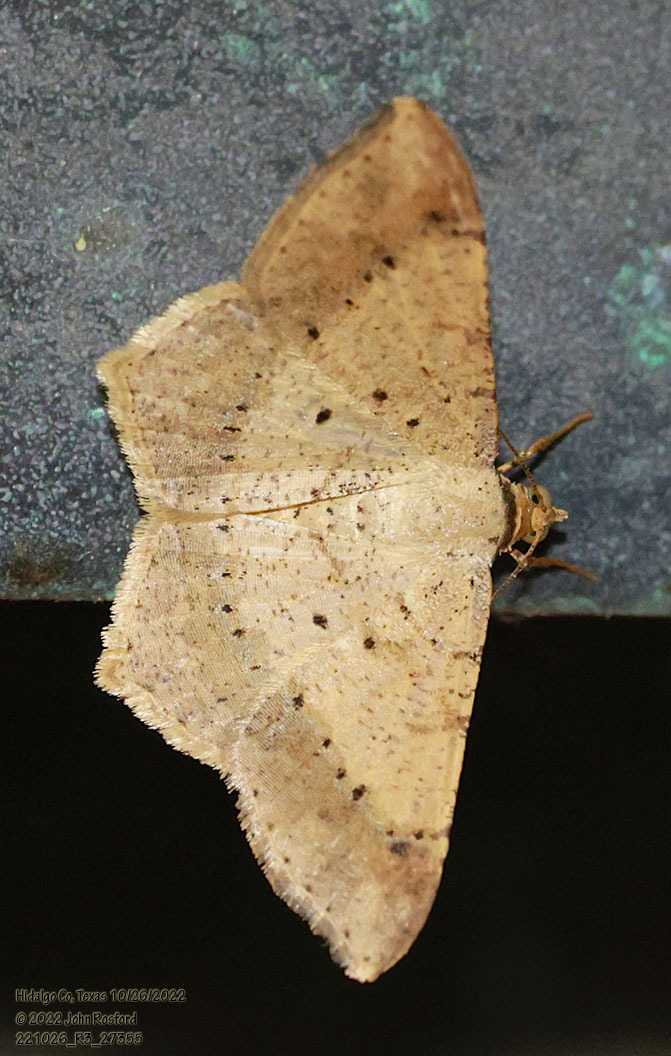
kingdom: Animalia
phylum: Arthropoda
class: Insecta
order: Lepidoptera
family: Geometridae
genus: Macaria
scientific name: Macaria abydata
